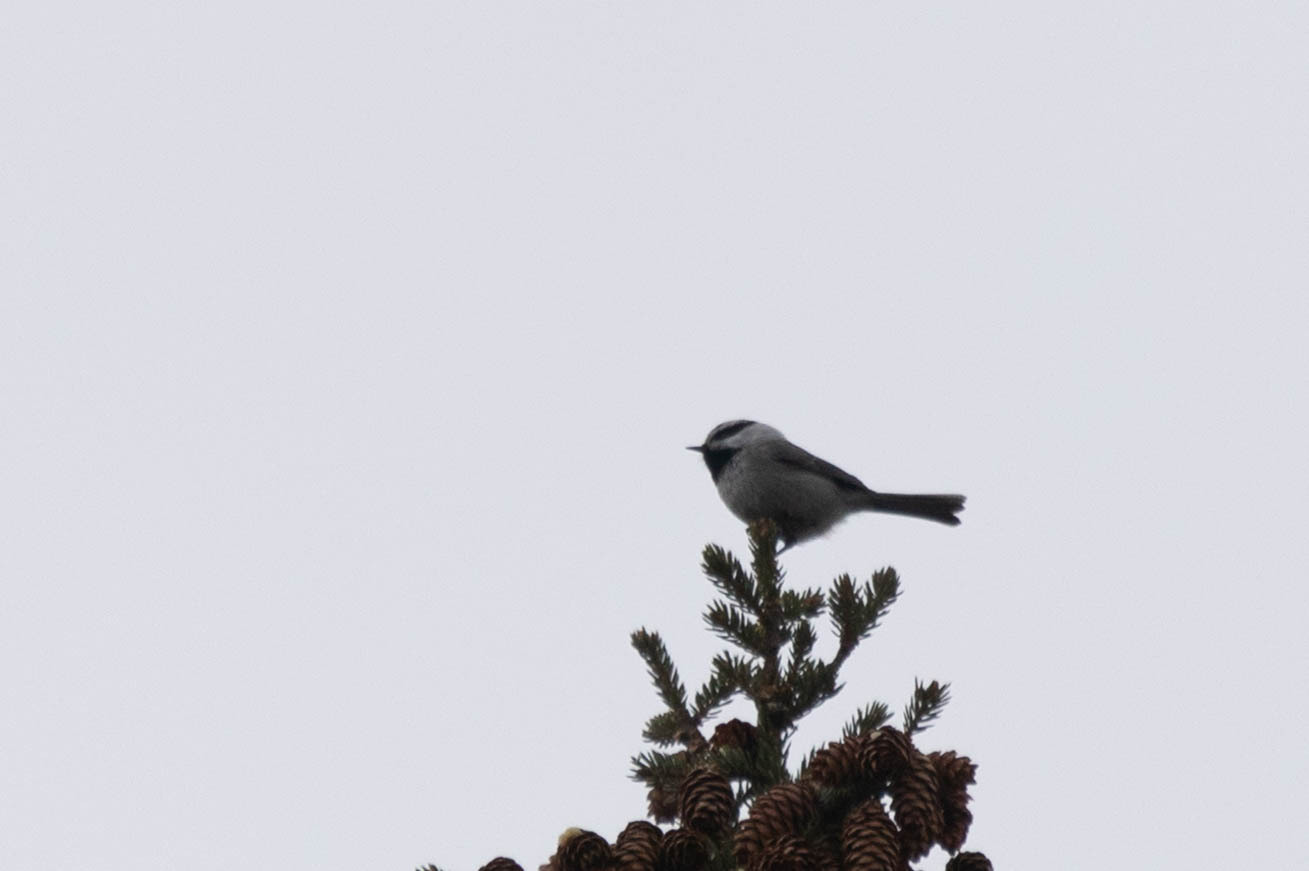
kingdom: Animalia
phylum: Chordata
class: Aves
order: Passeriformes
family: Paridae
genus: Poecile
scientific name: Poecile gambeli
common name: Mountain chickadee
